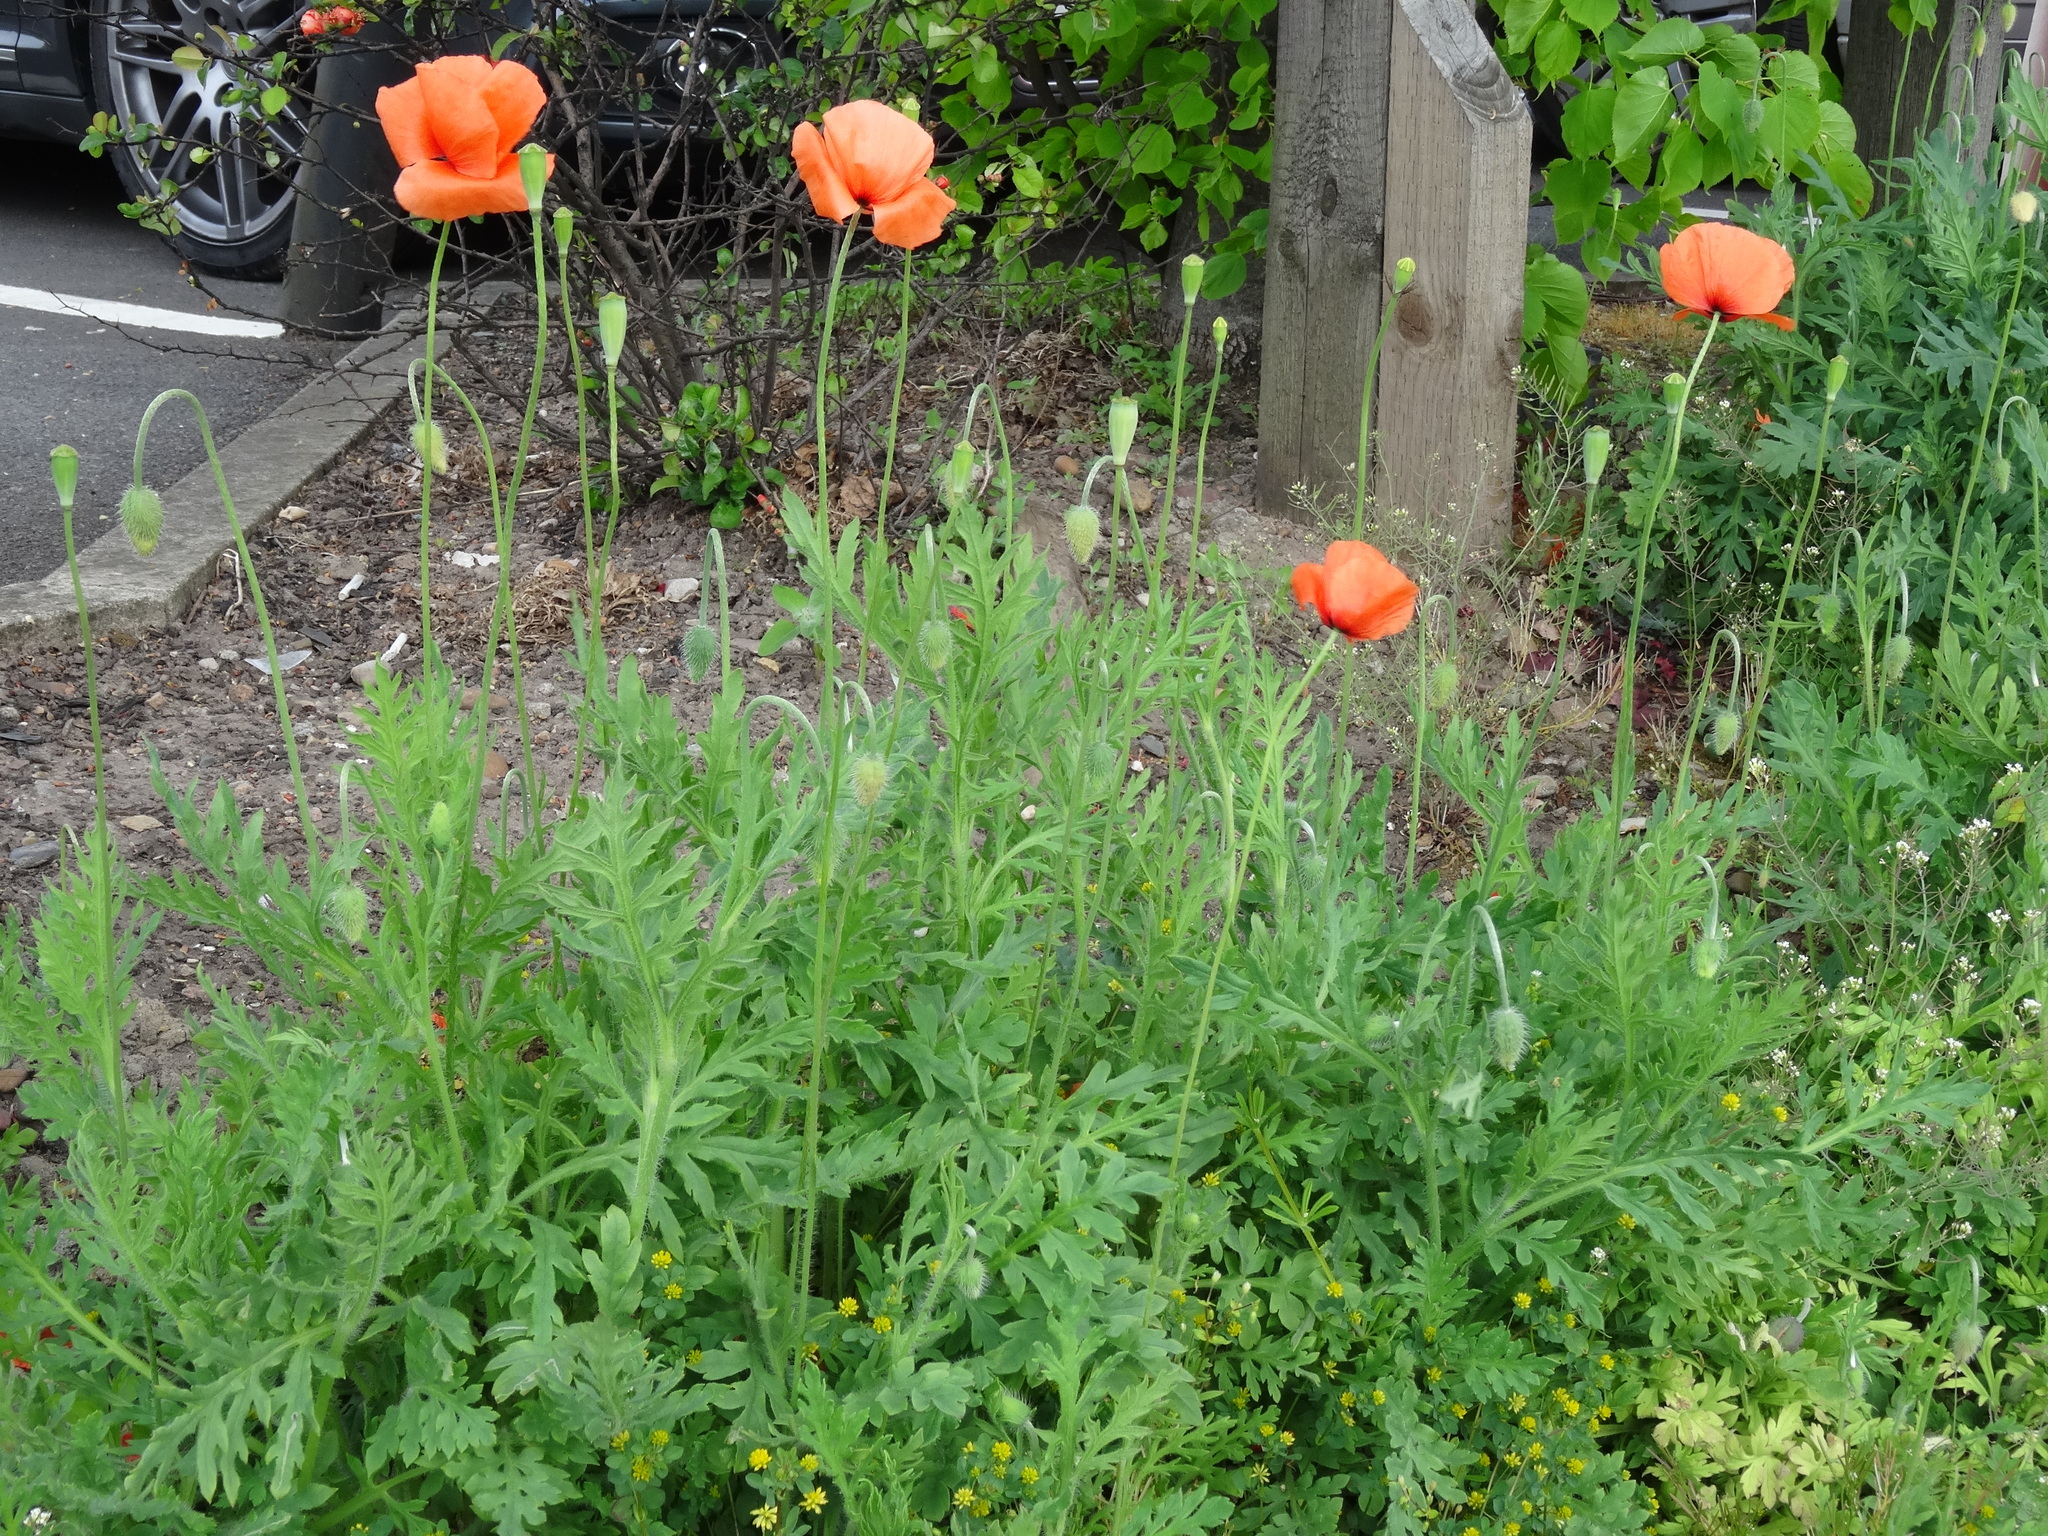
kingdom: Plantae
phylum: Tracheophyta
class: Magnoliopsida
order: Ranunculales
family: Papaveraceae
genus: Papaver
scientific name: Papaver rhoeas
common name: Corn poppy
